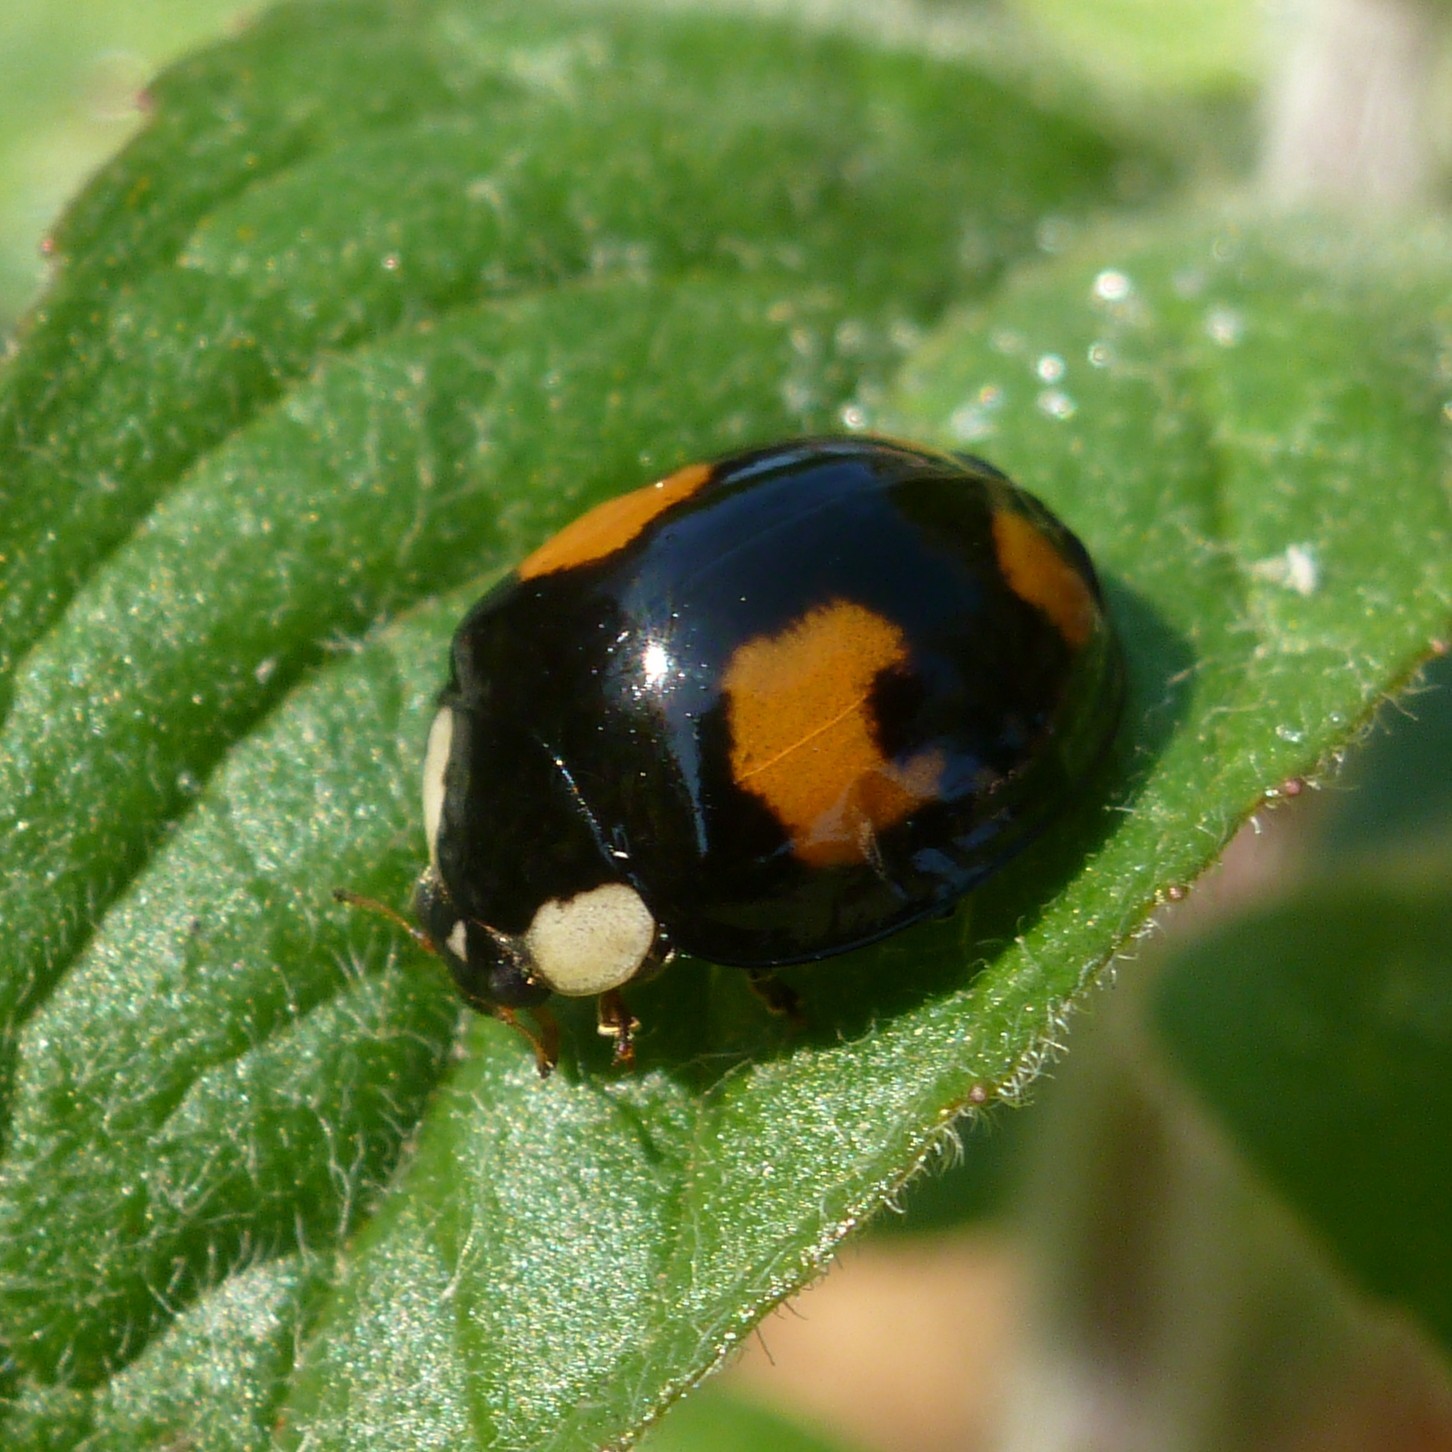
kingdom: Animalia
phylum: Arthropoda
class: Insecta
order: Coleoptera
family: Coccinellidae
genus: Harmonia
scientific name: Harmonia axyridis
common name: Harlequin ladybird
